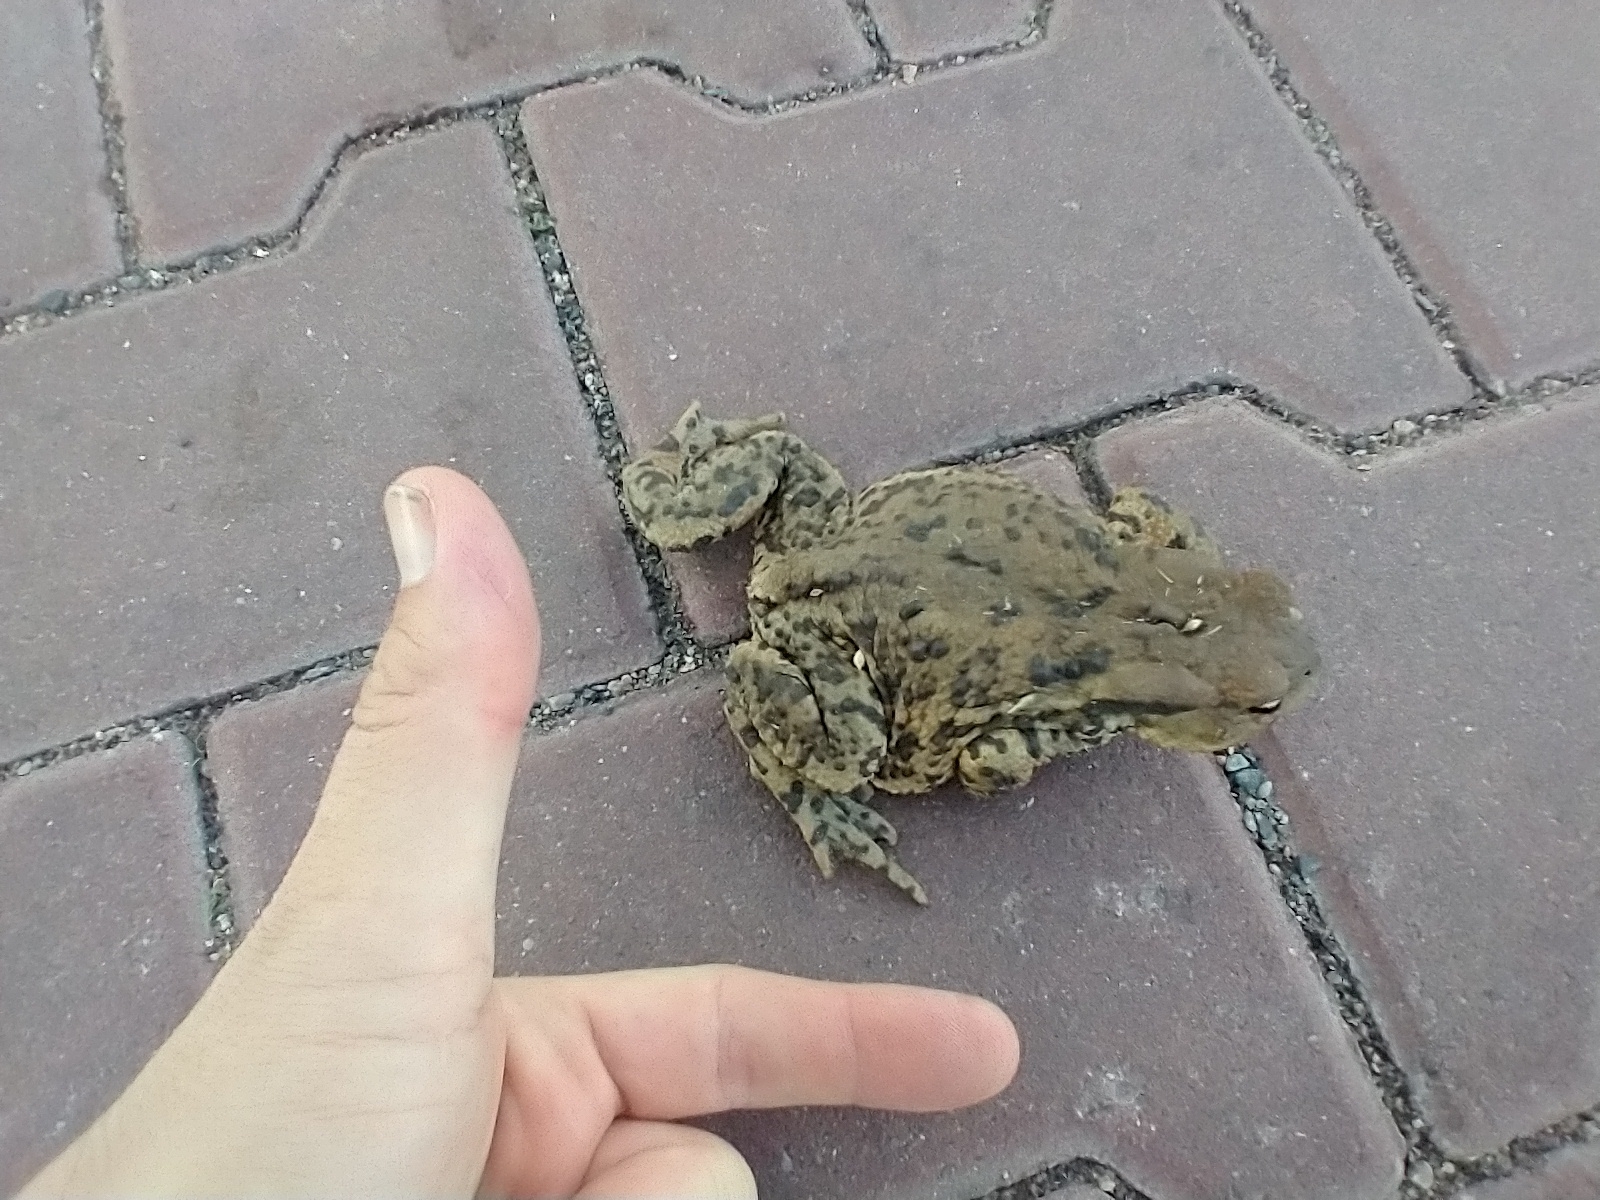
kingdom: Animalia
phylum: Chordata
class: Amphibia
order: Anura
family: Bufonidae
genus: Bufo
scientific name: Bufo bufo
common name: Common toad
